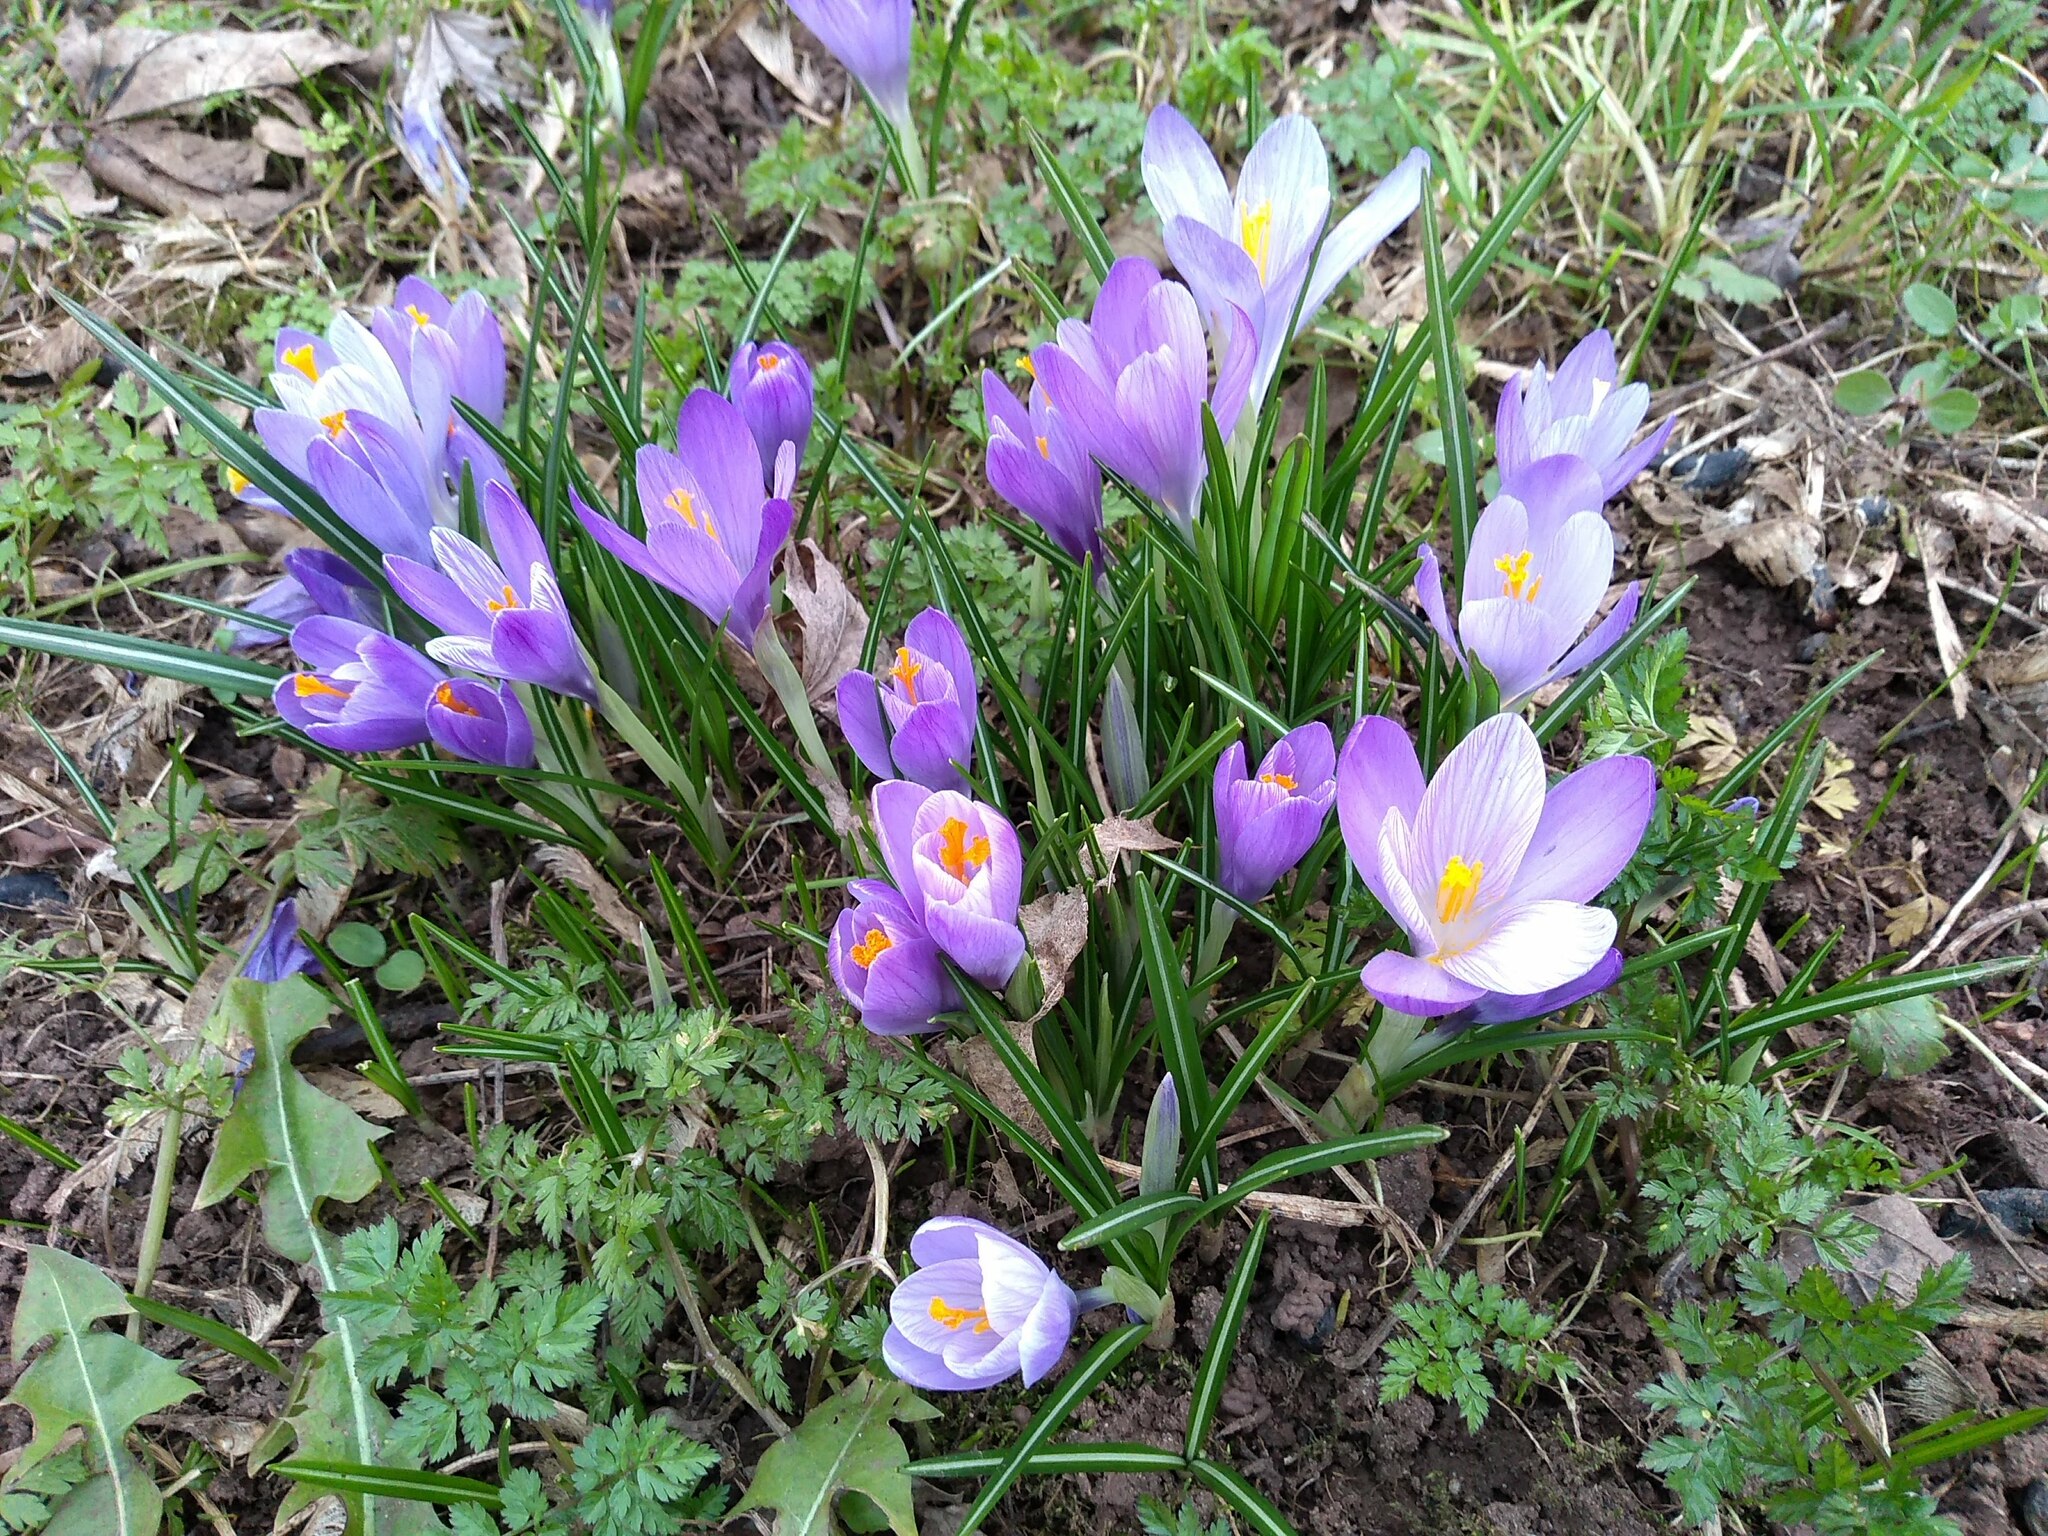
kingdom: Plantae
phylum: Tracheophyta
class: Liliopsida
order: Asparagales
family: Iridaceae
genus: Crocus
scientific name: Crocus neapolitanus
